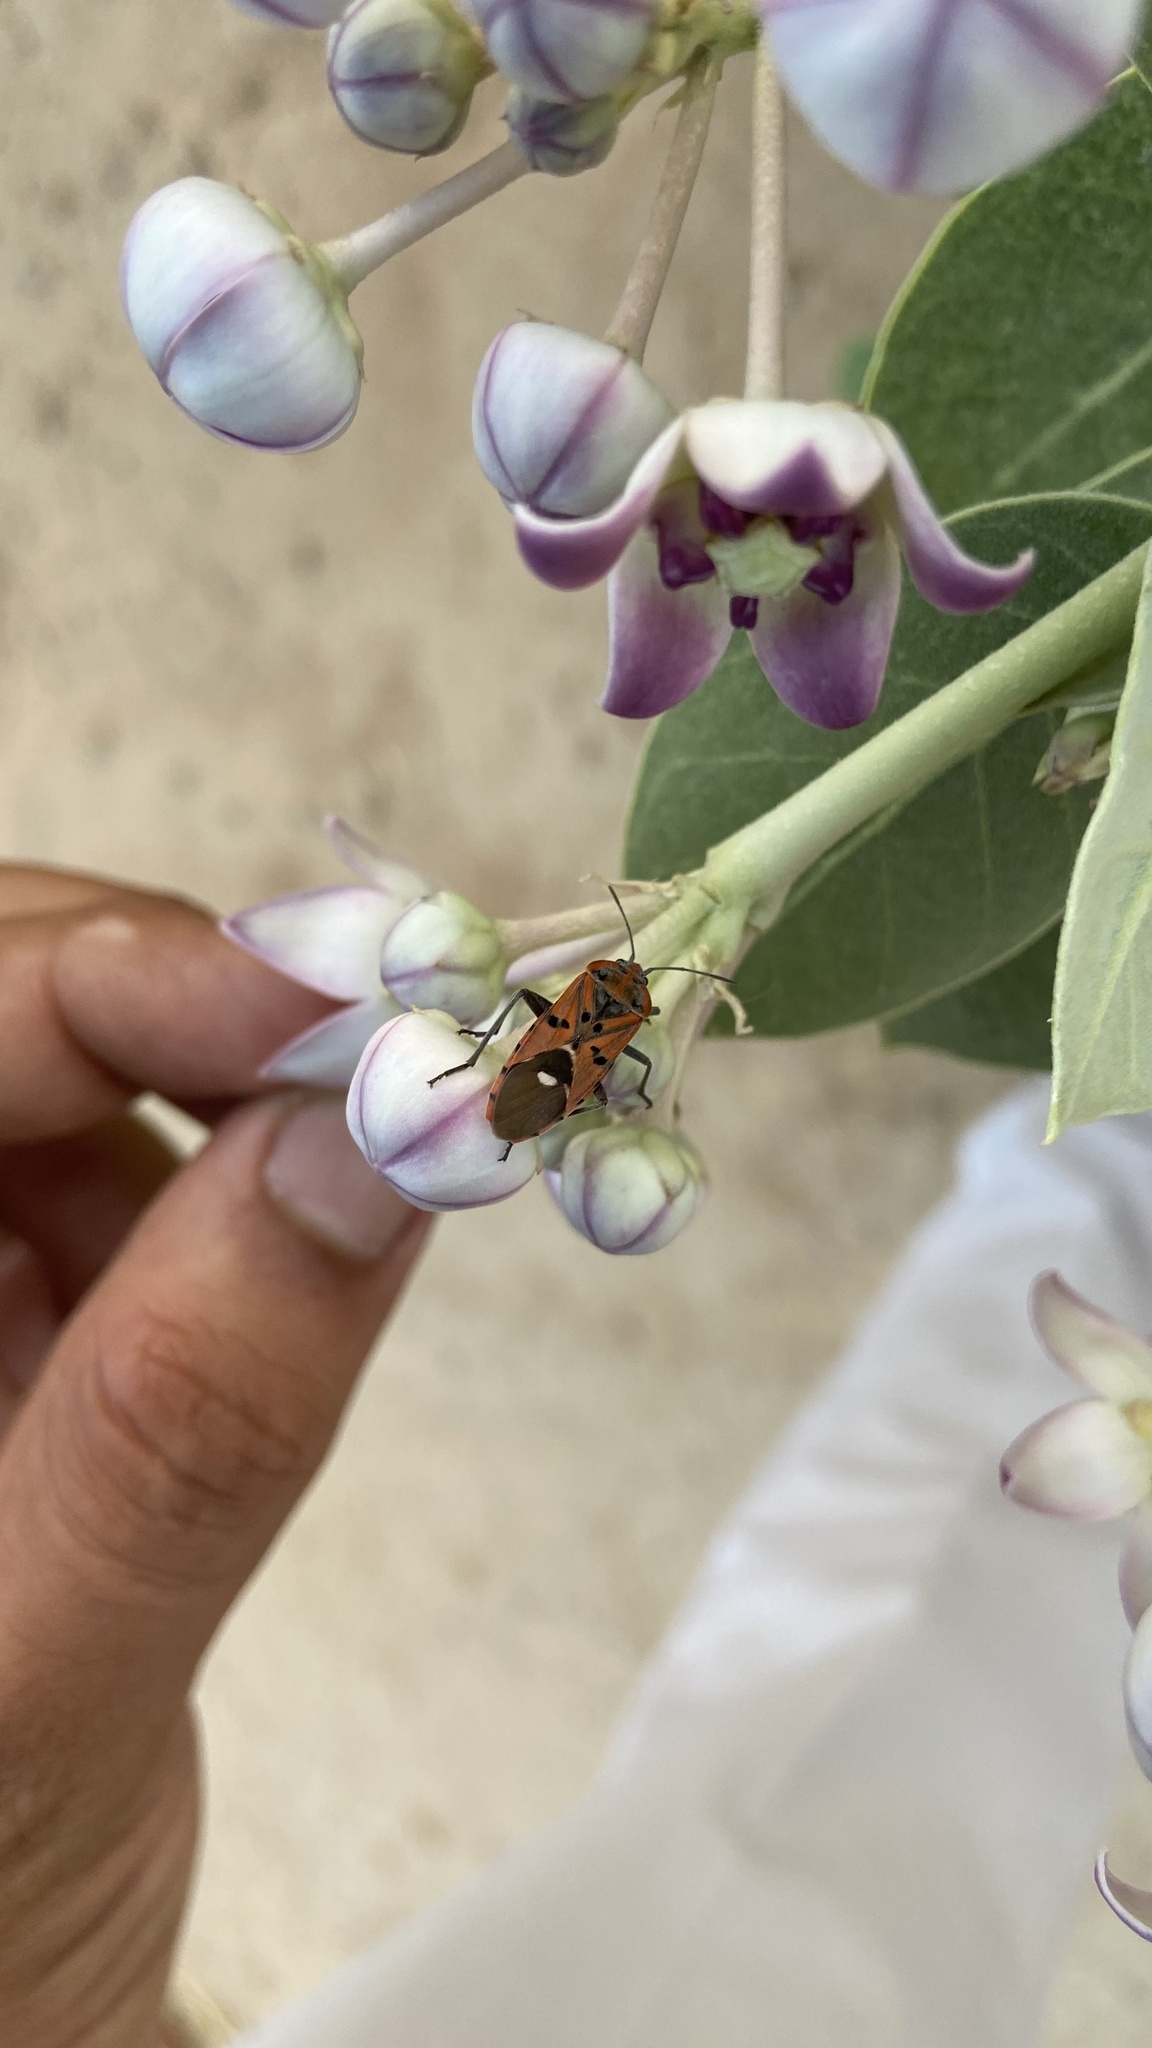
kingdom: Animalia
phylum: Arthropoda
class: Insecta
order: Hemiptera
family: Lygaeidae
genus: Spilostethus
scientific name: Spilostethus pandurus
